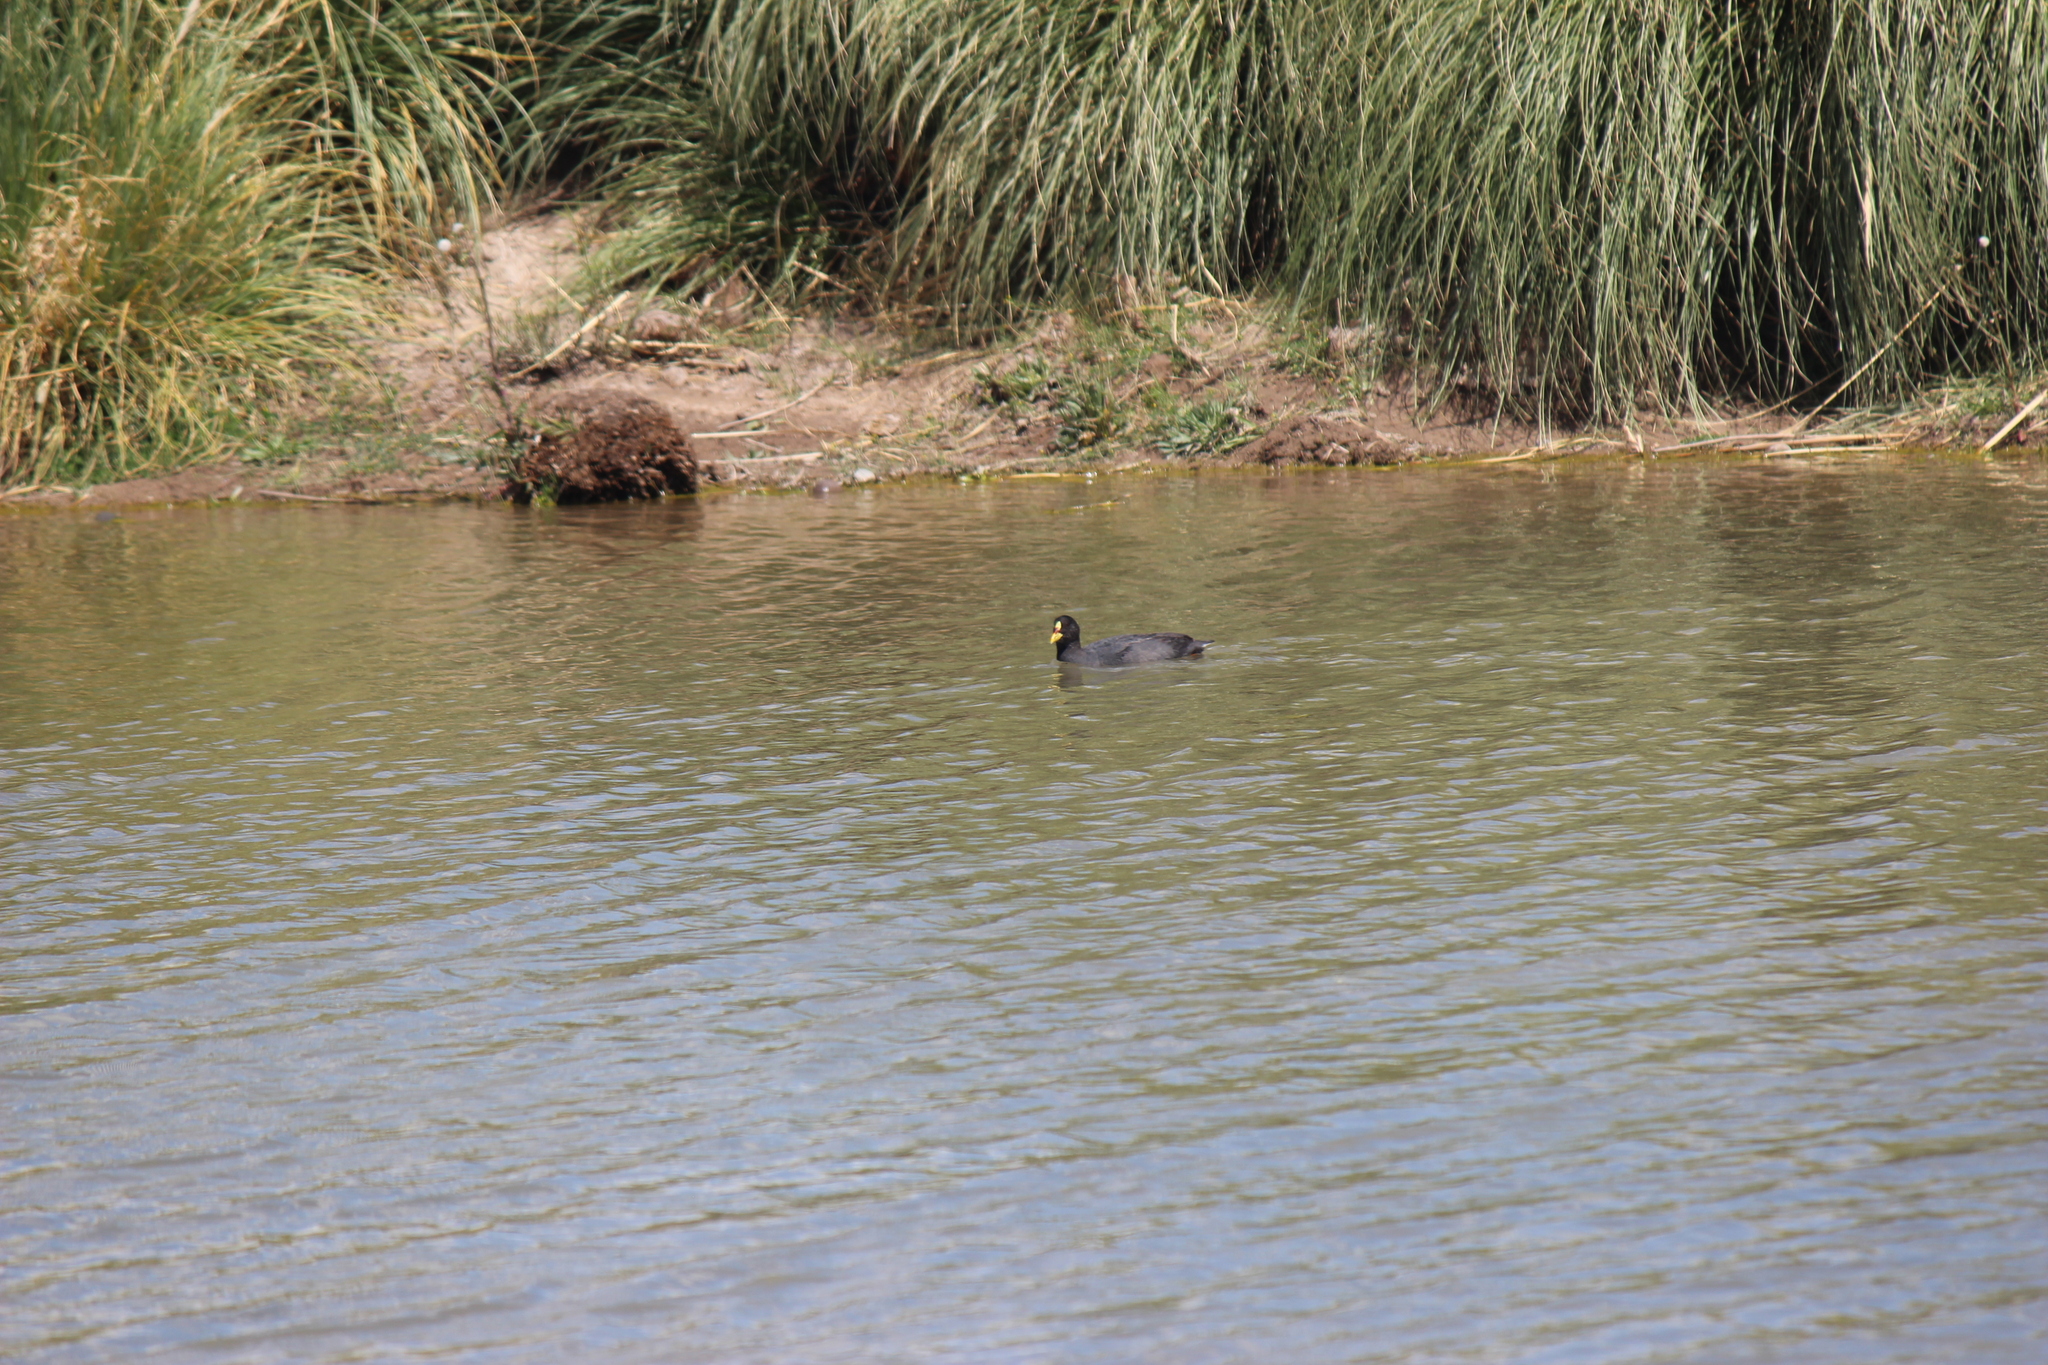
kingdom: Animalia
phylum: Chordata
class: Aves
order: Gruiformes
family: Rallidae
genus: Fulica
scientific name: Fulica armillata
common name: Red-gartered coot
